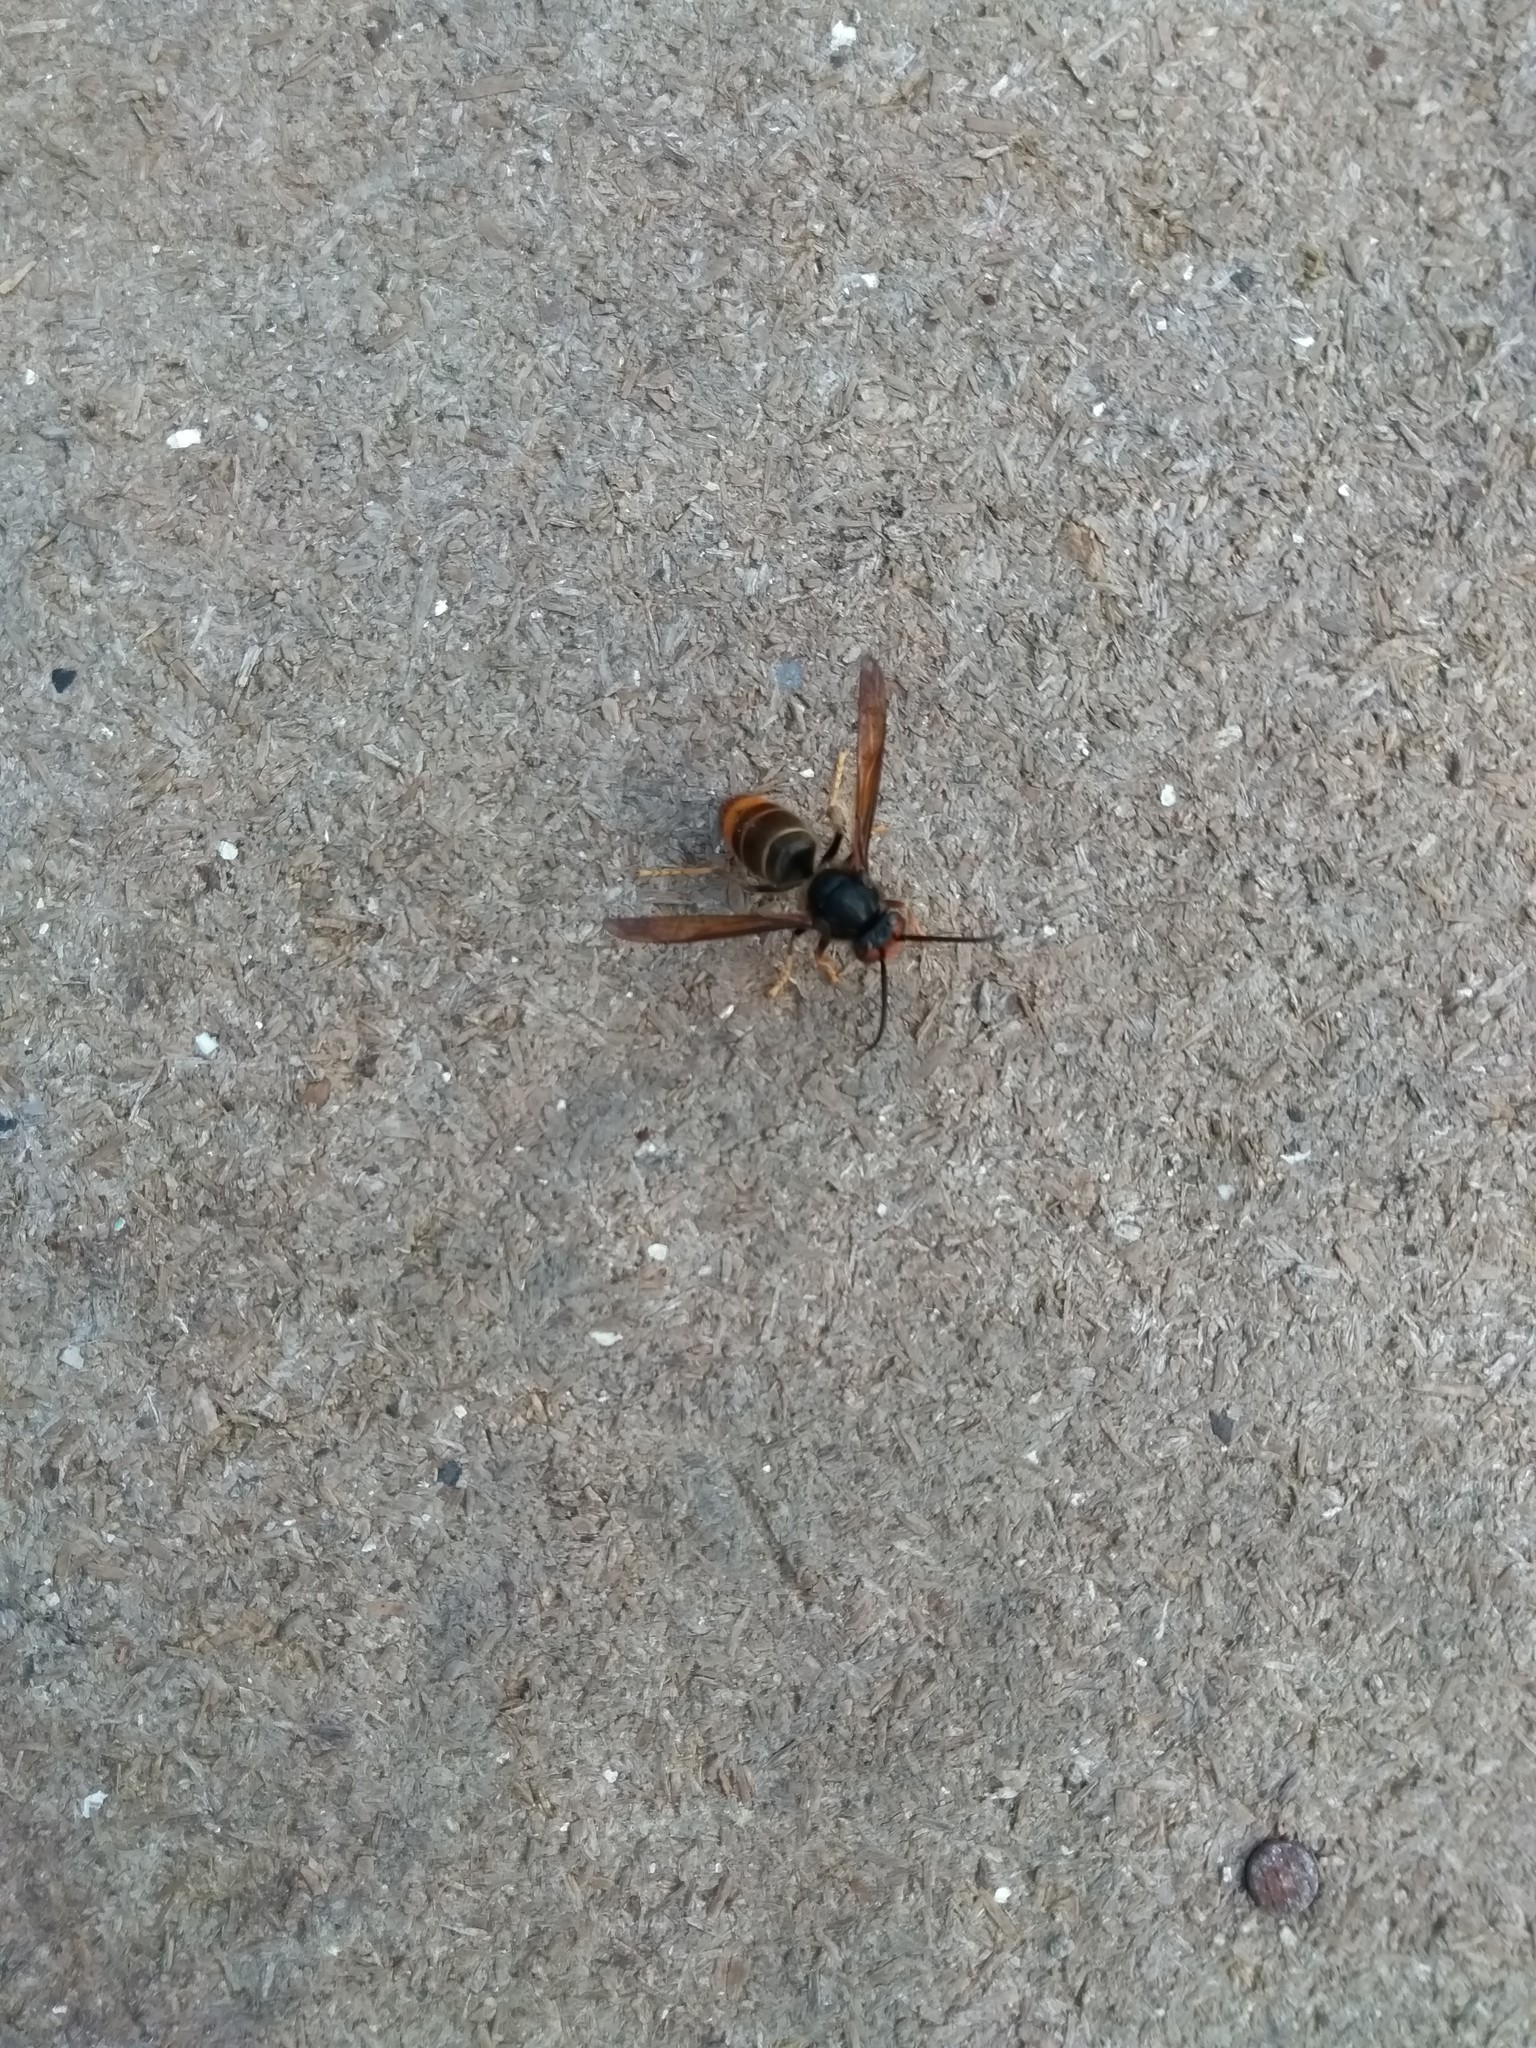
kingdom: Animalia
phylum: Arthropoda
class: Insecta
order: Hymenoptera
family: Vespidae
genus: Vespa
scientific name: Vespa velutina
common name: Asian hornet
